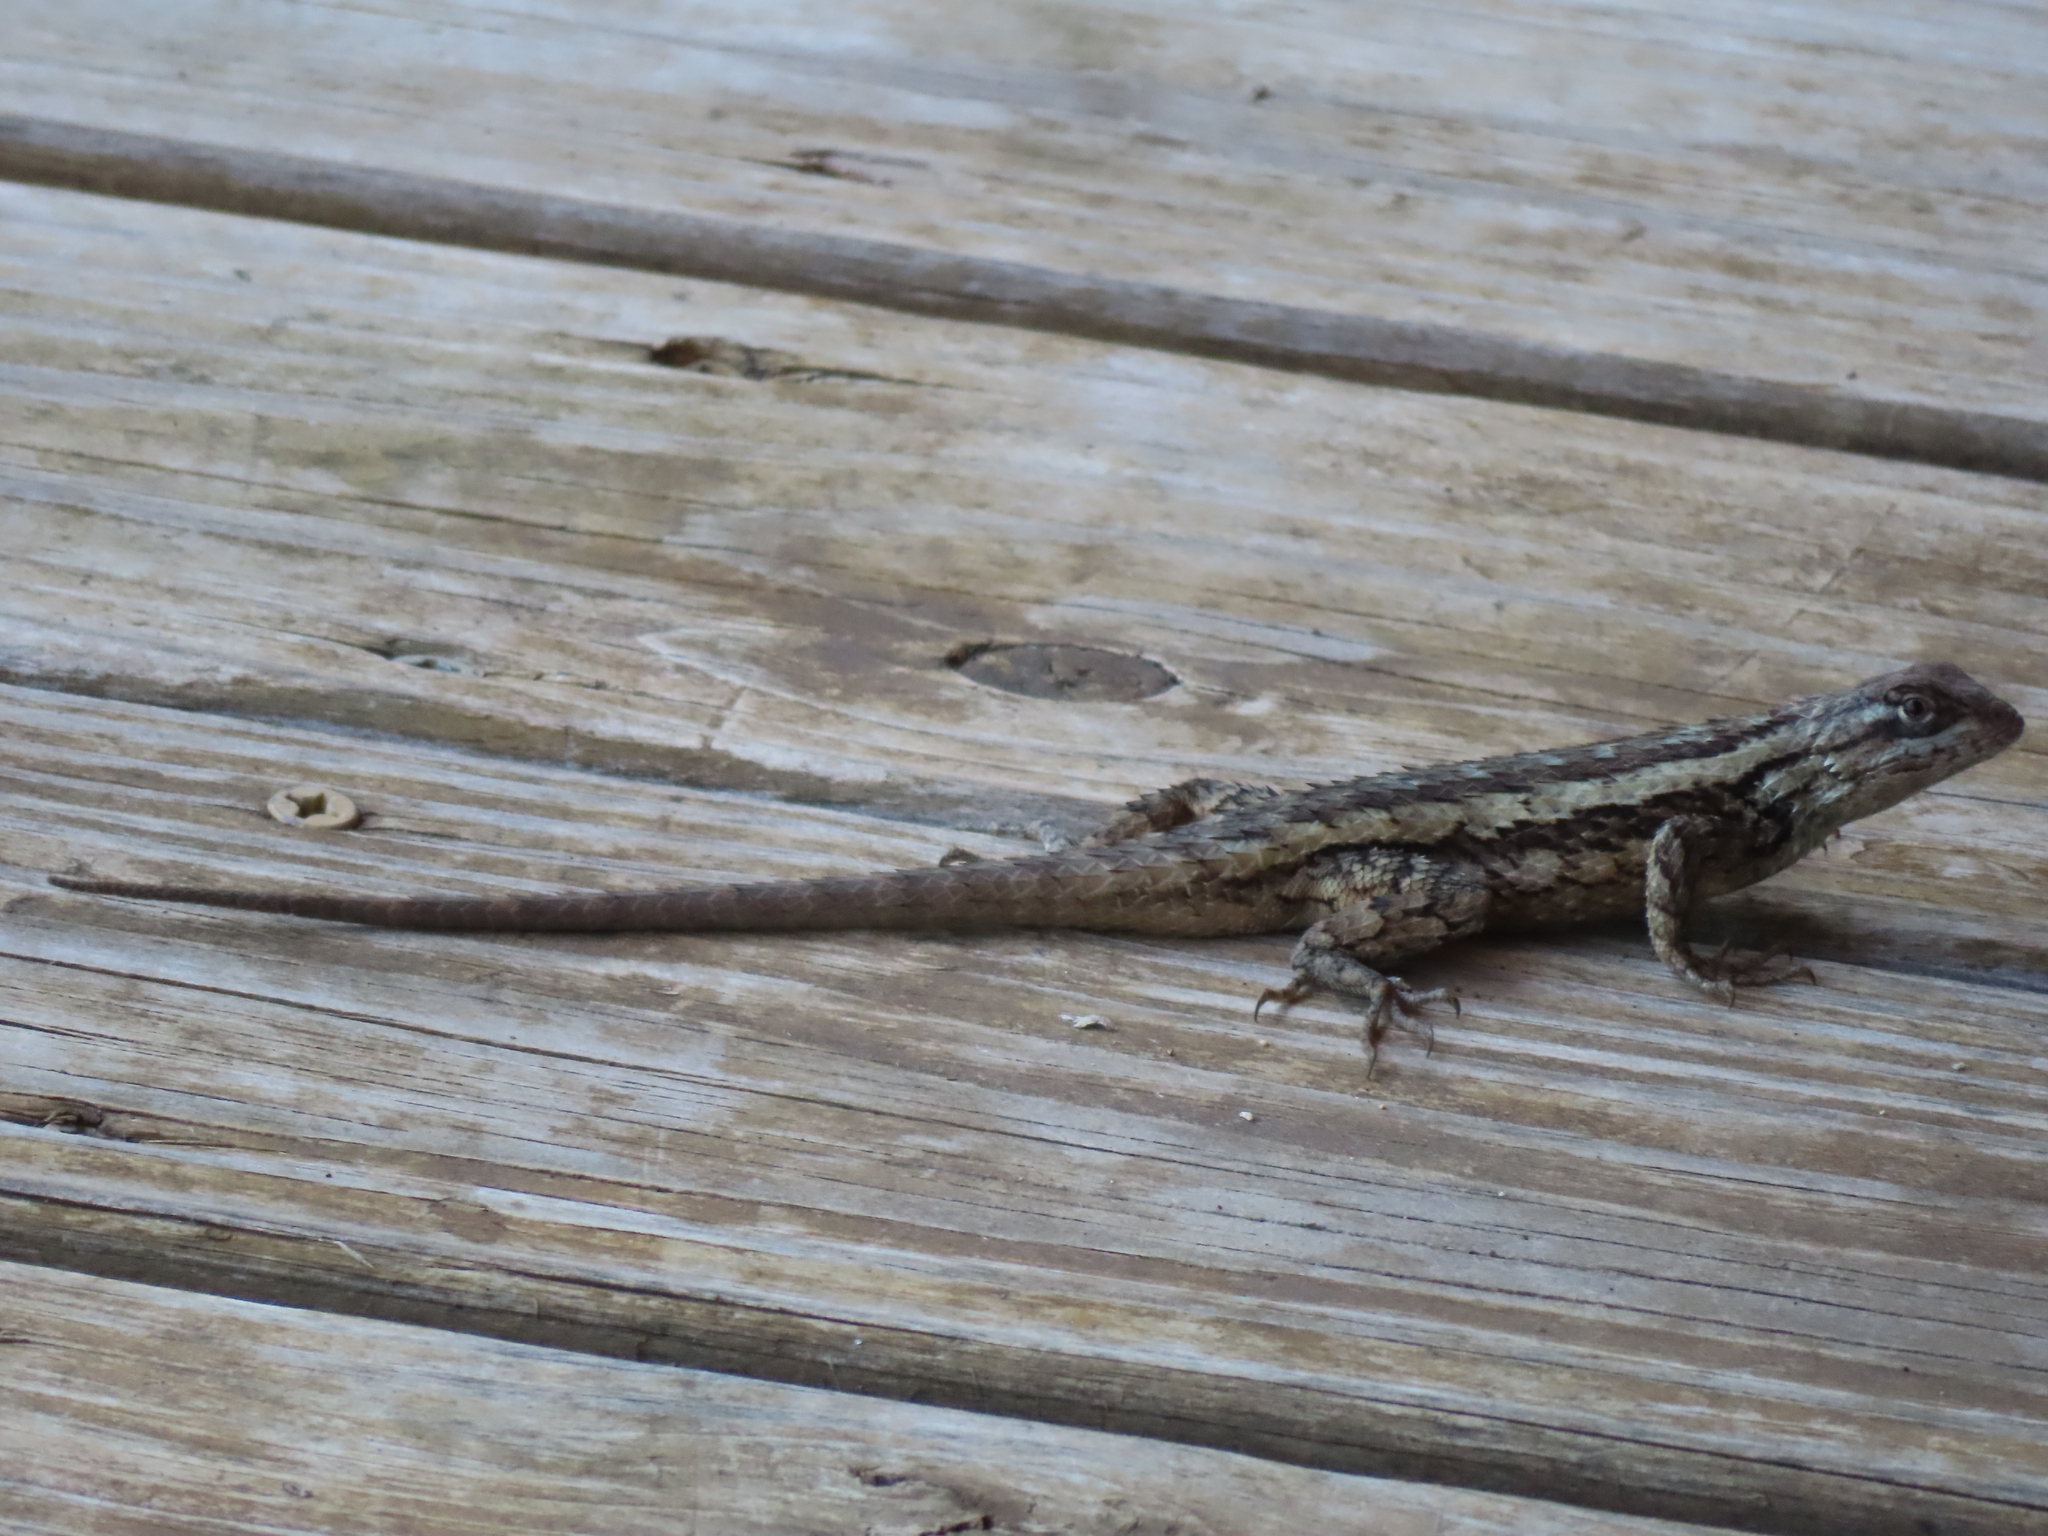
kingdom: Animalia
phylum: Chordata
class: Squamata
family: Phrynosomatidae
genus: Sceloporus
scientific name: Sceloporus olivaceus
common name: Texas spiny lizard
